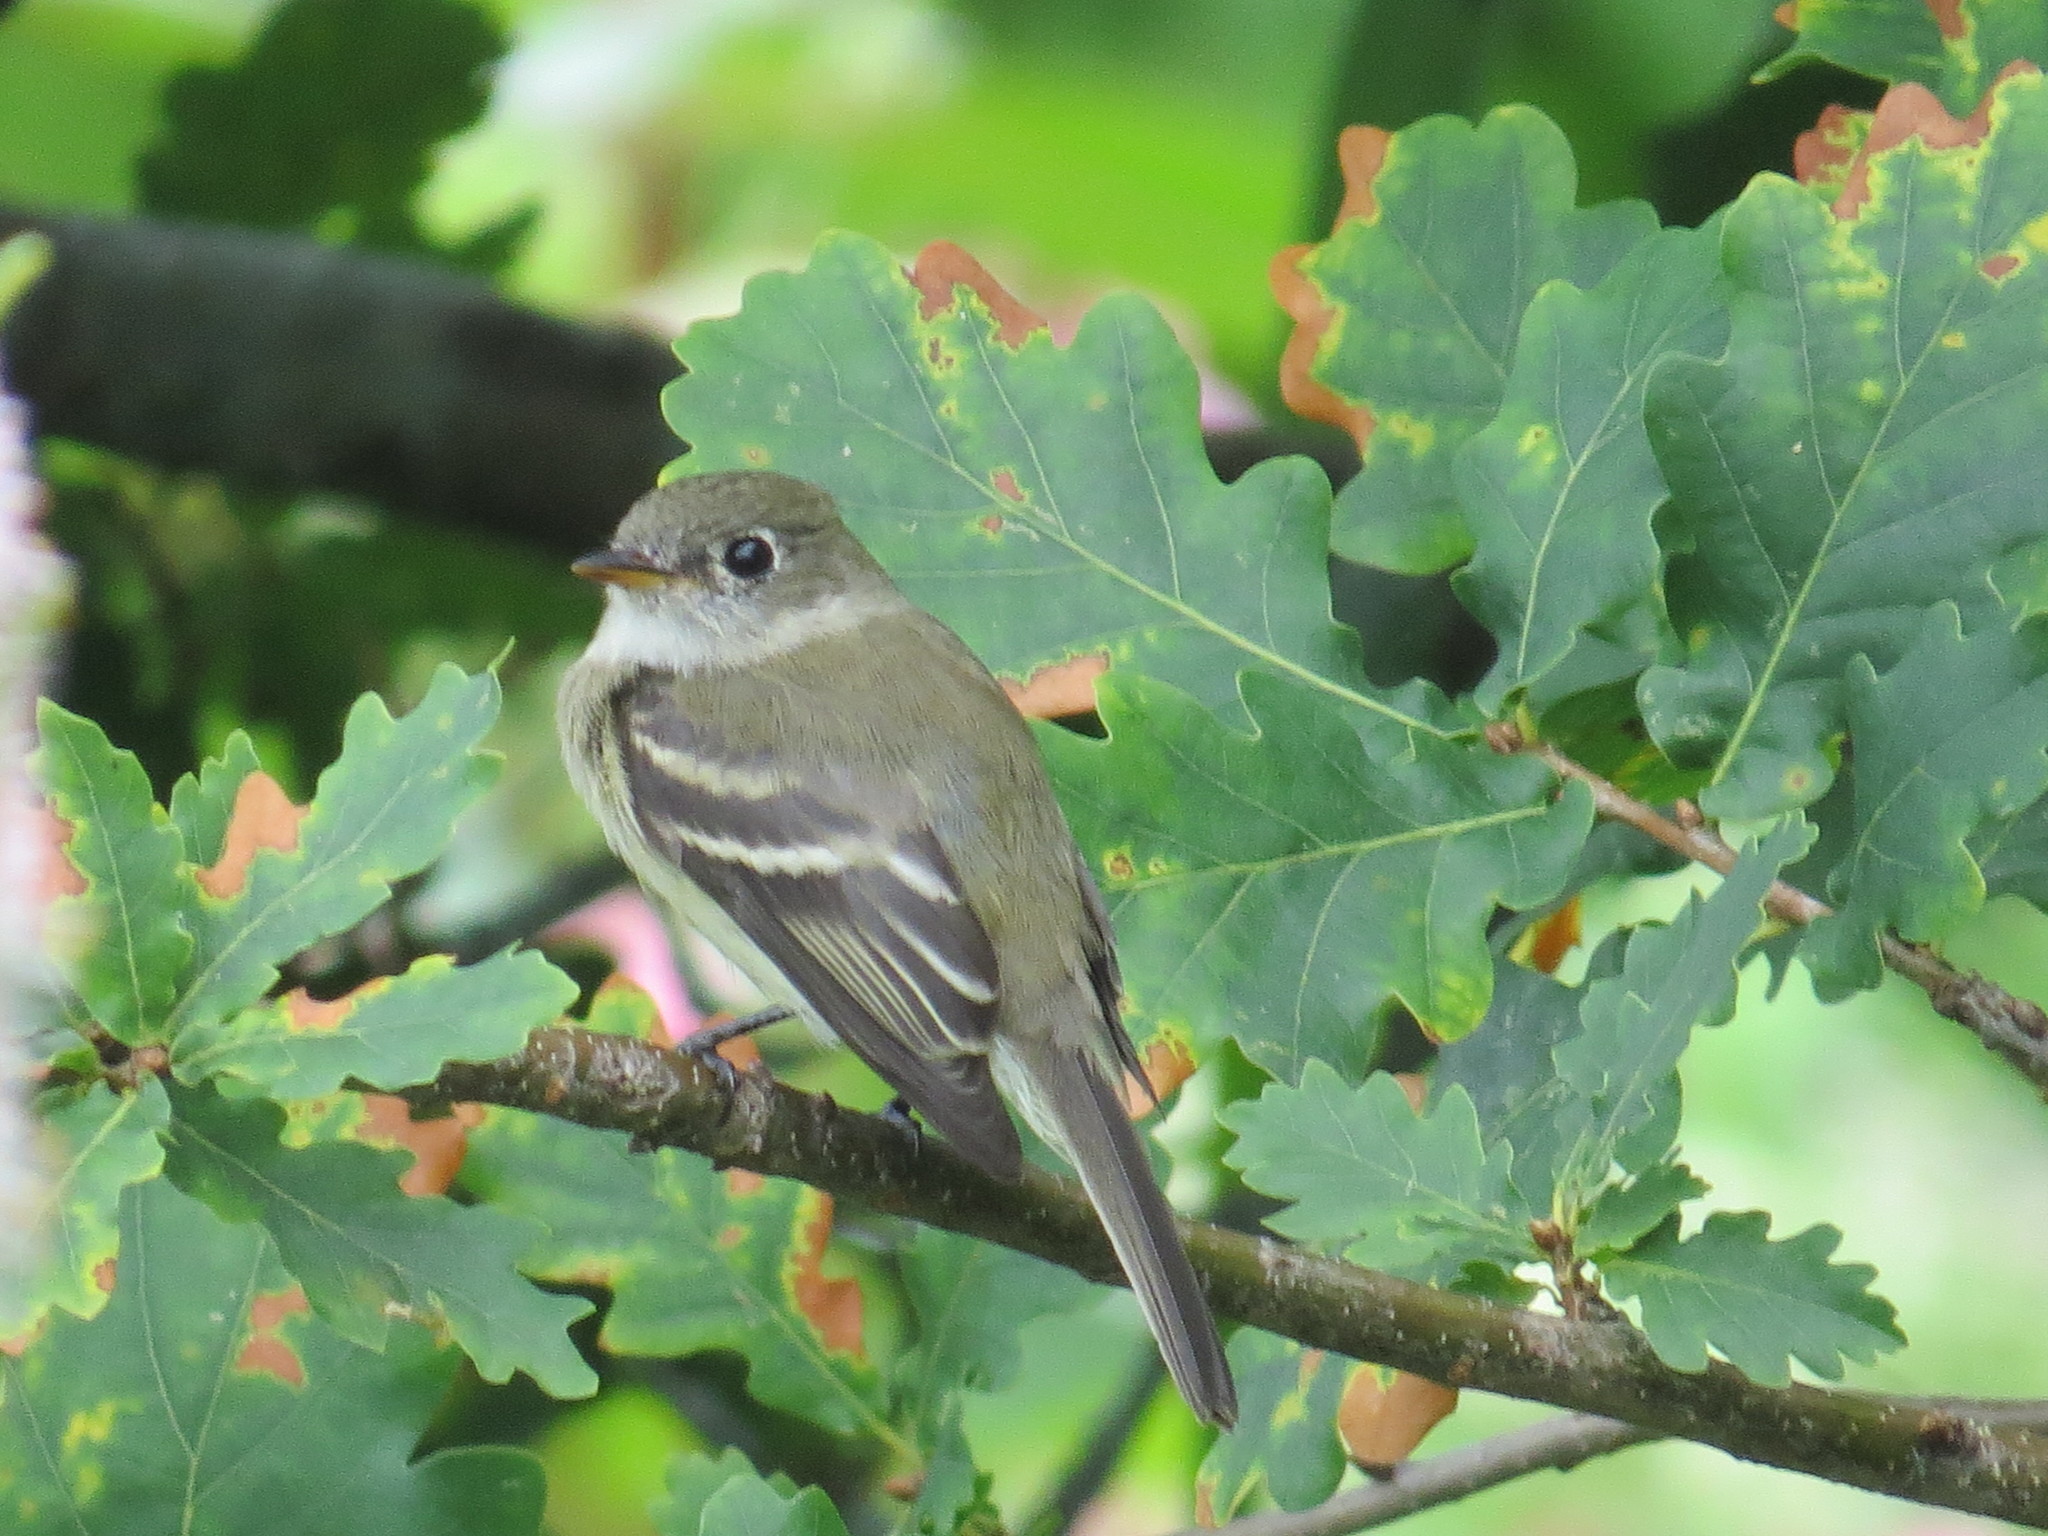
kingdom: Animalia
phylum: Chordata
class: Aves
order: Passeriformes
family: Tyrannidae
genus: Empidonax
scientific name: Empidonax minimus
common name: Least flycatcher
